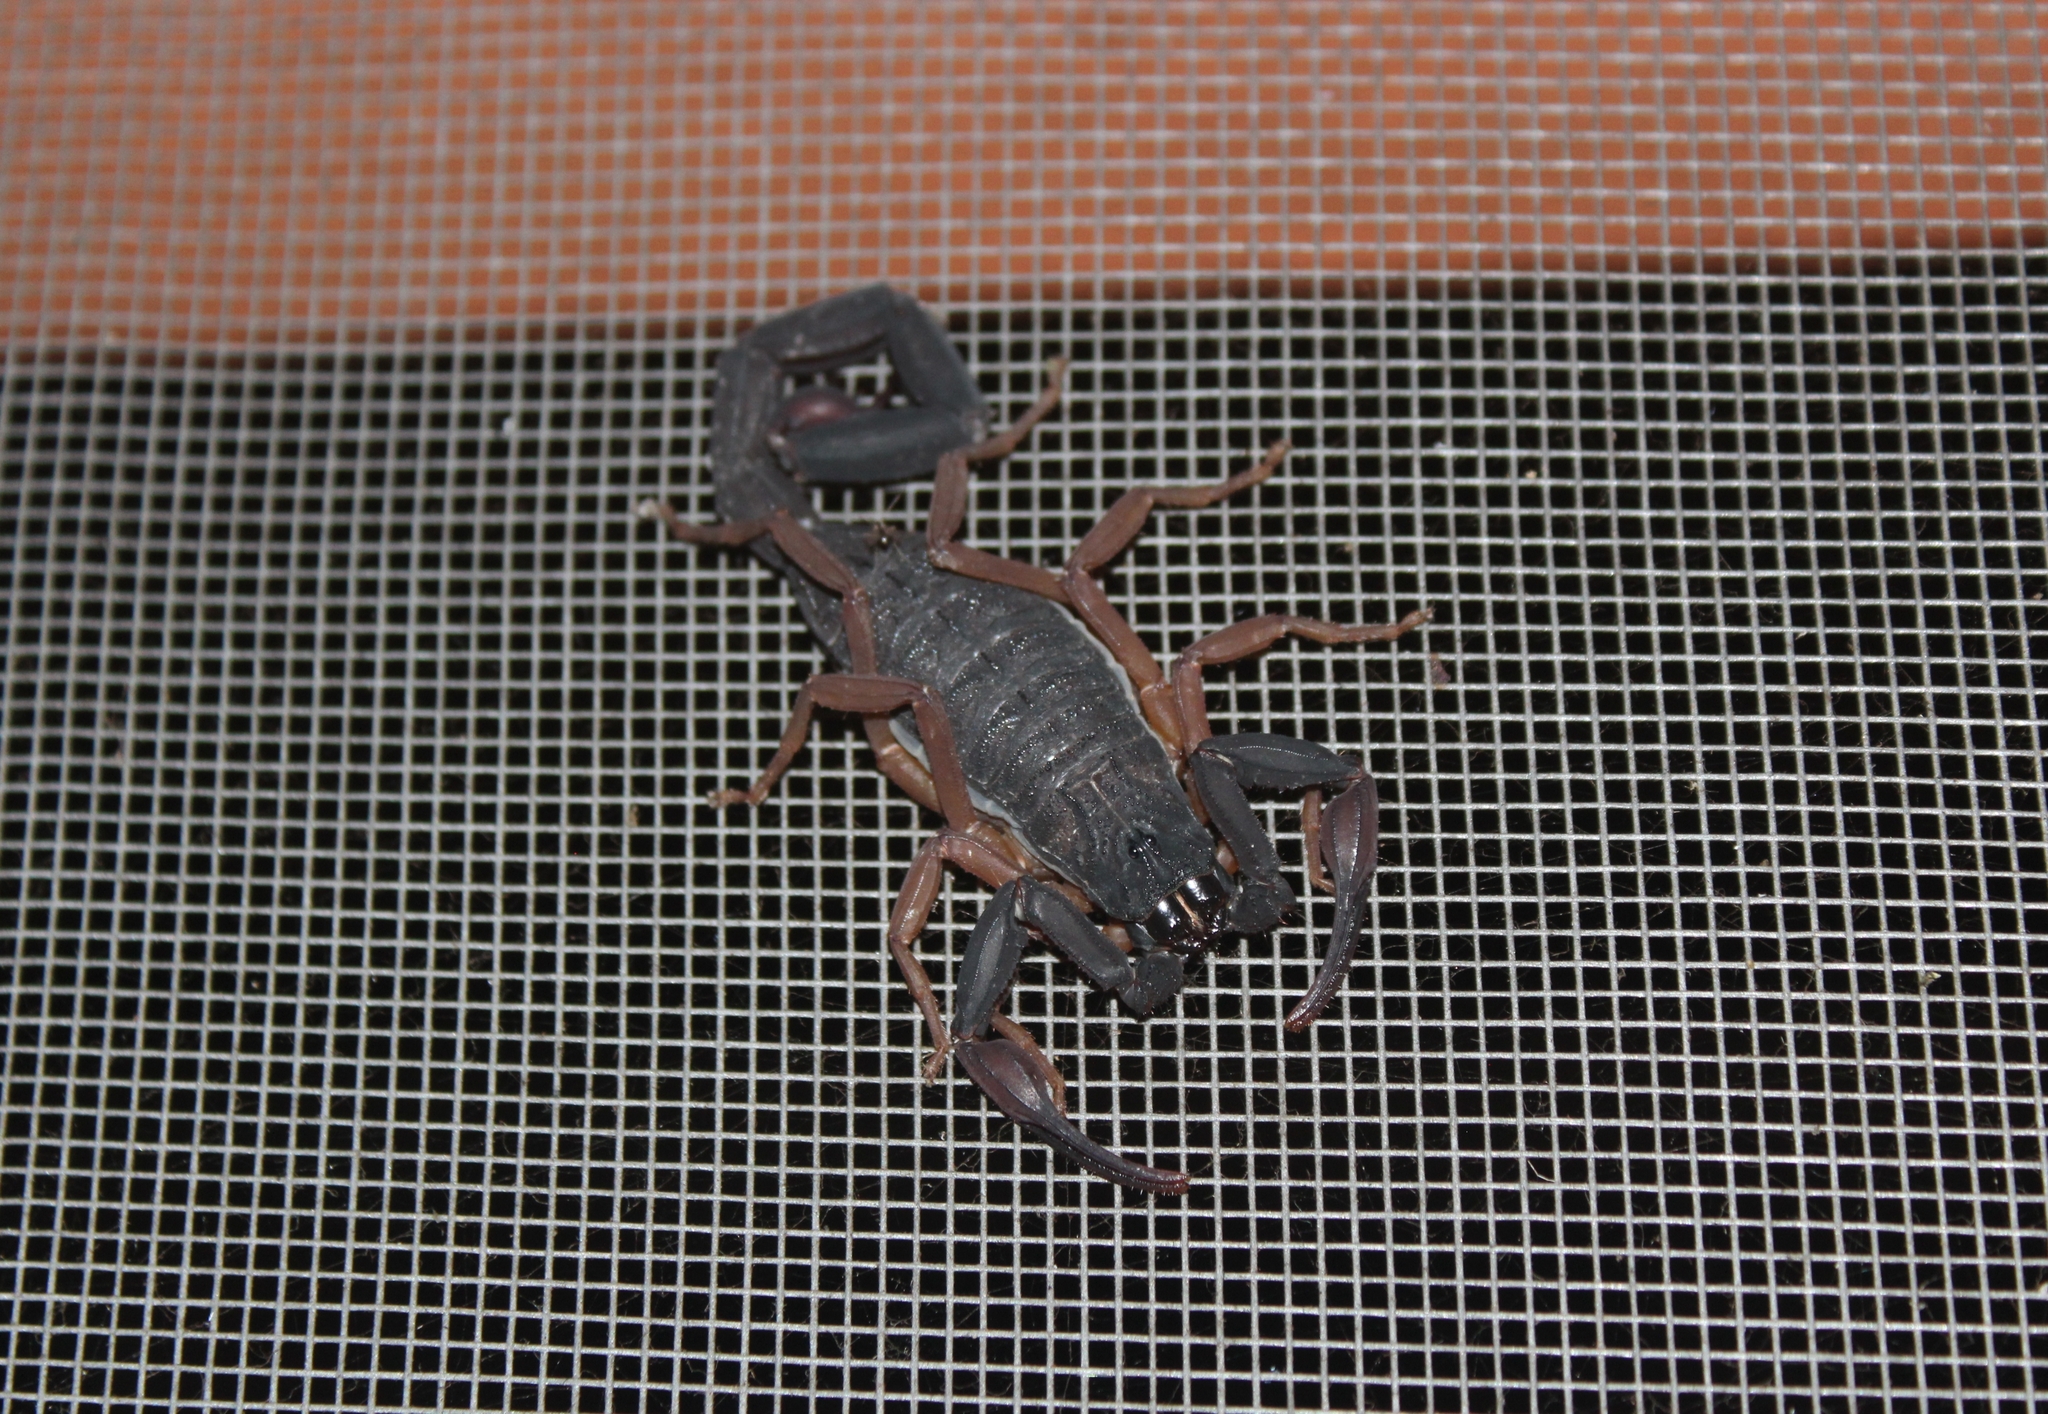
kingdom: Animalia
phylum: Arthropoda
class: Arachnida
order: Scorpiones
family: Buthidae
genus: Centruroides
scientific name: Centruroides gracilis
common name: Scorpions
